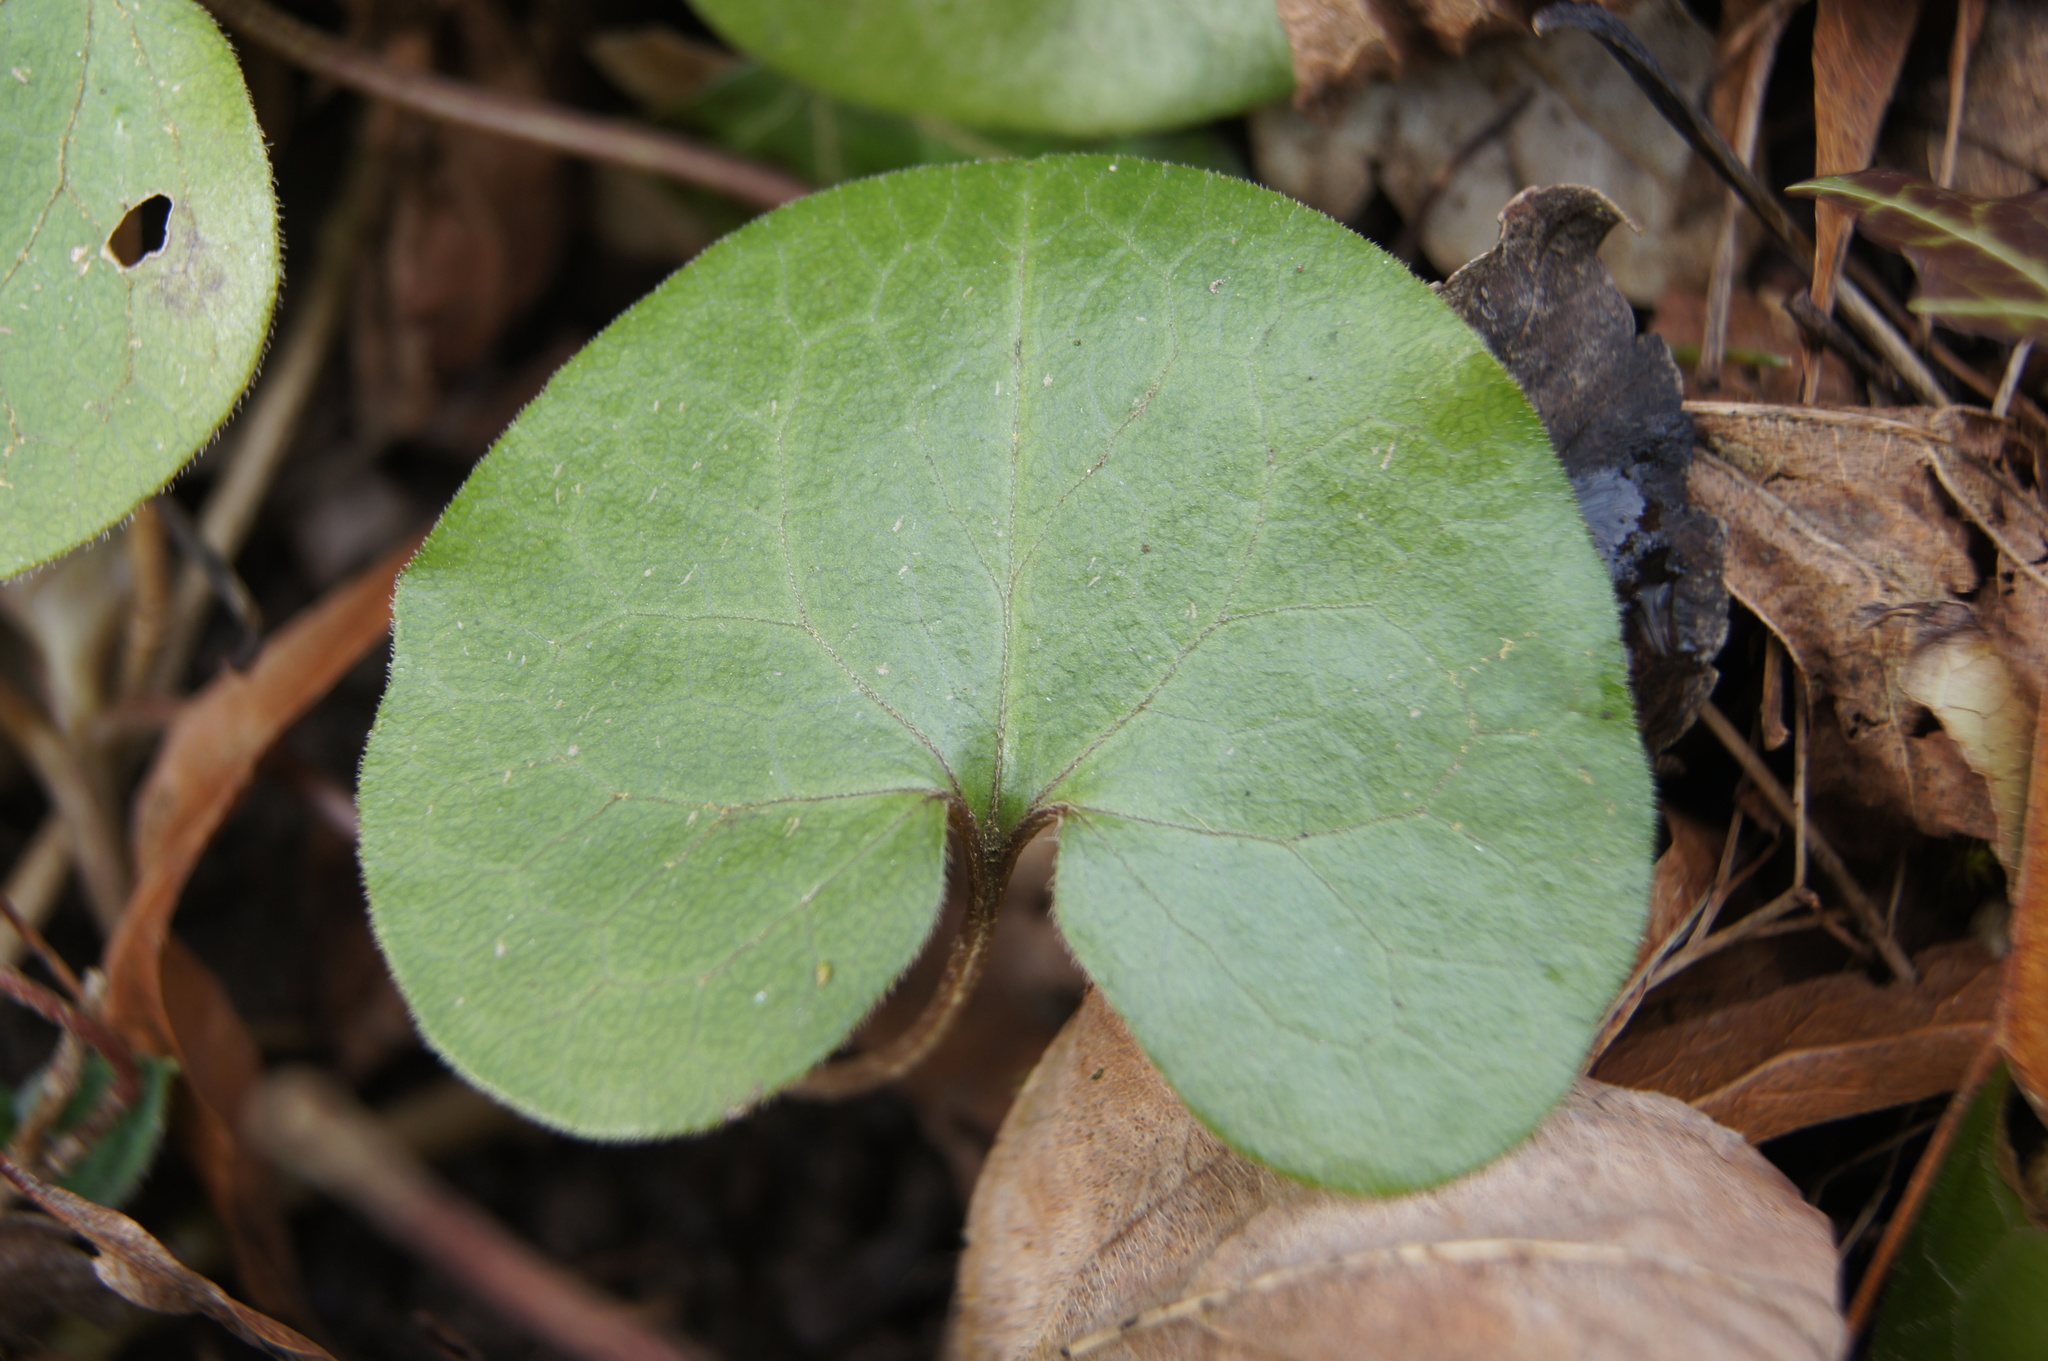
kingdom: Plantae
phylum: Tracheophyta
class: Magnoliopsida
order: Piperales
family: Aristolochiaceae
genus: Asarum
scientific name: Asarum europaeum
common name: Asarabacca
